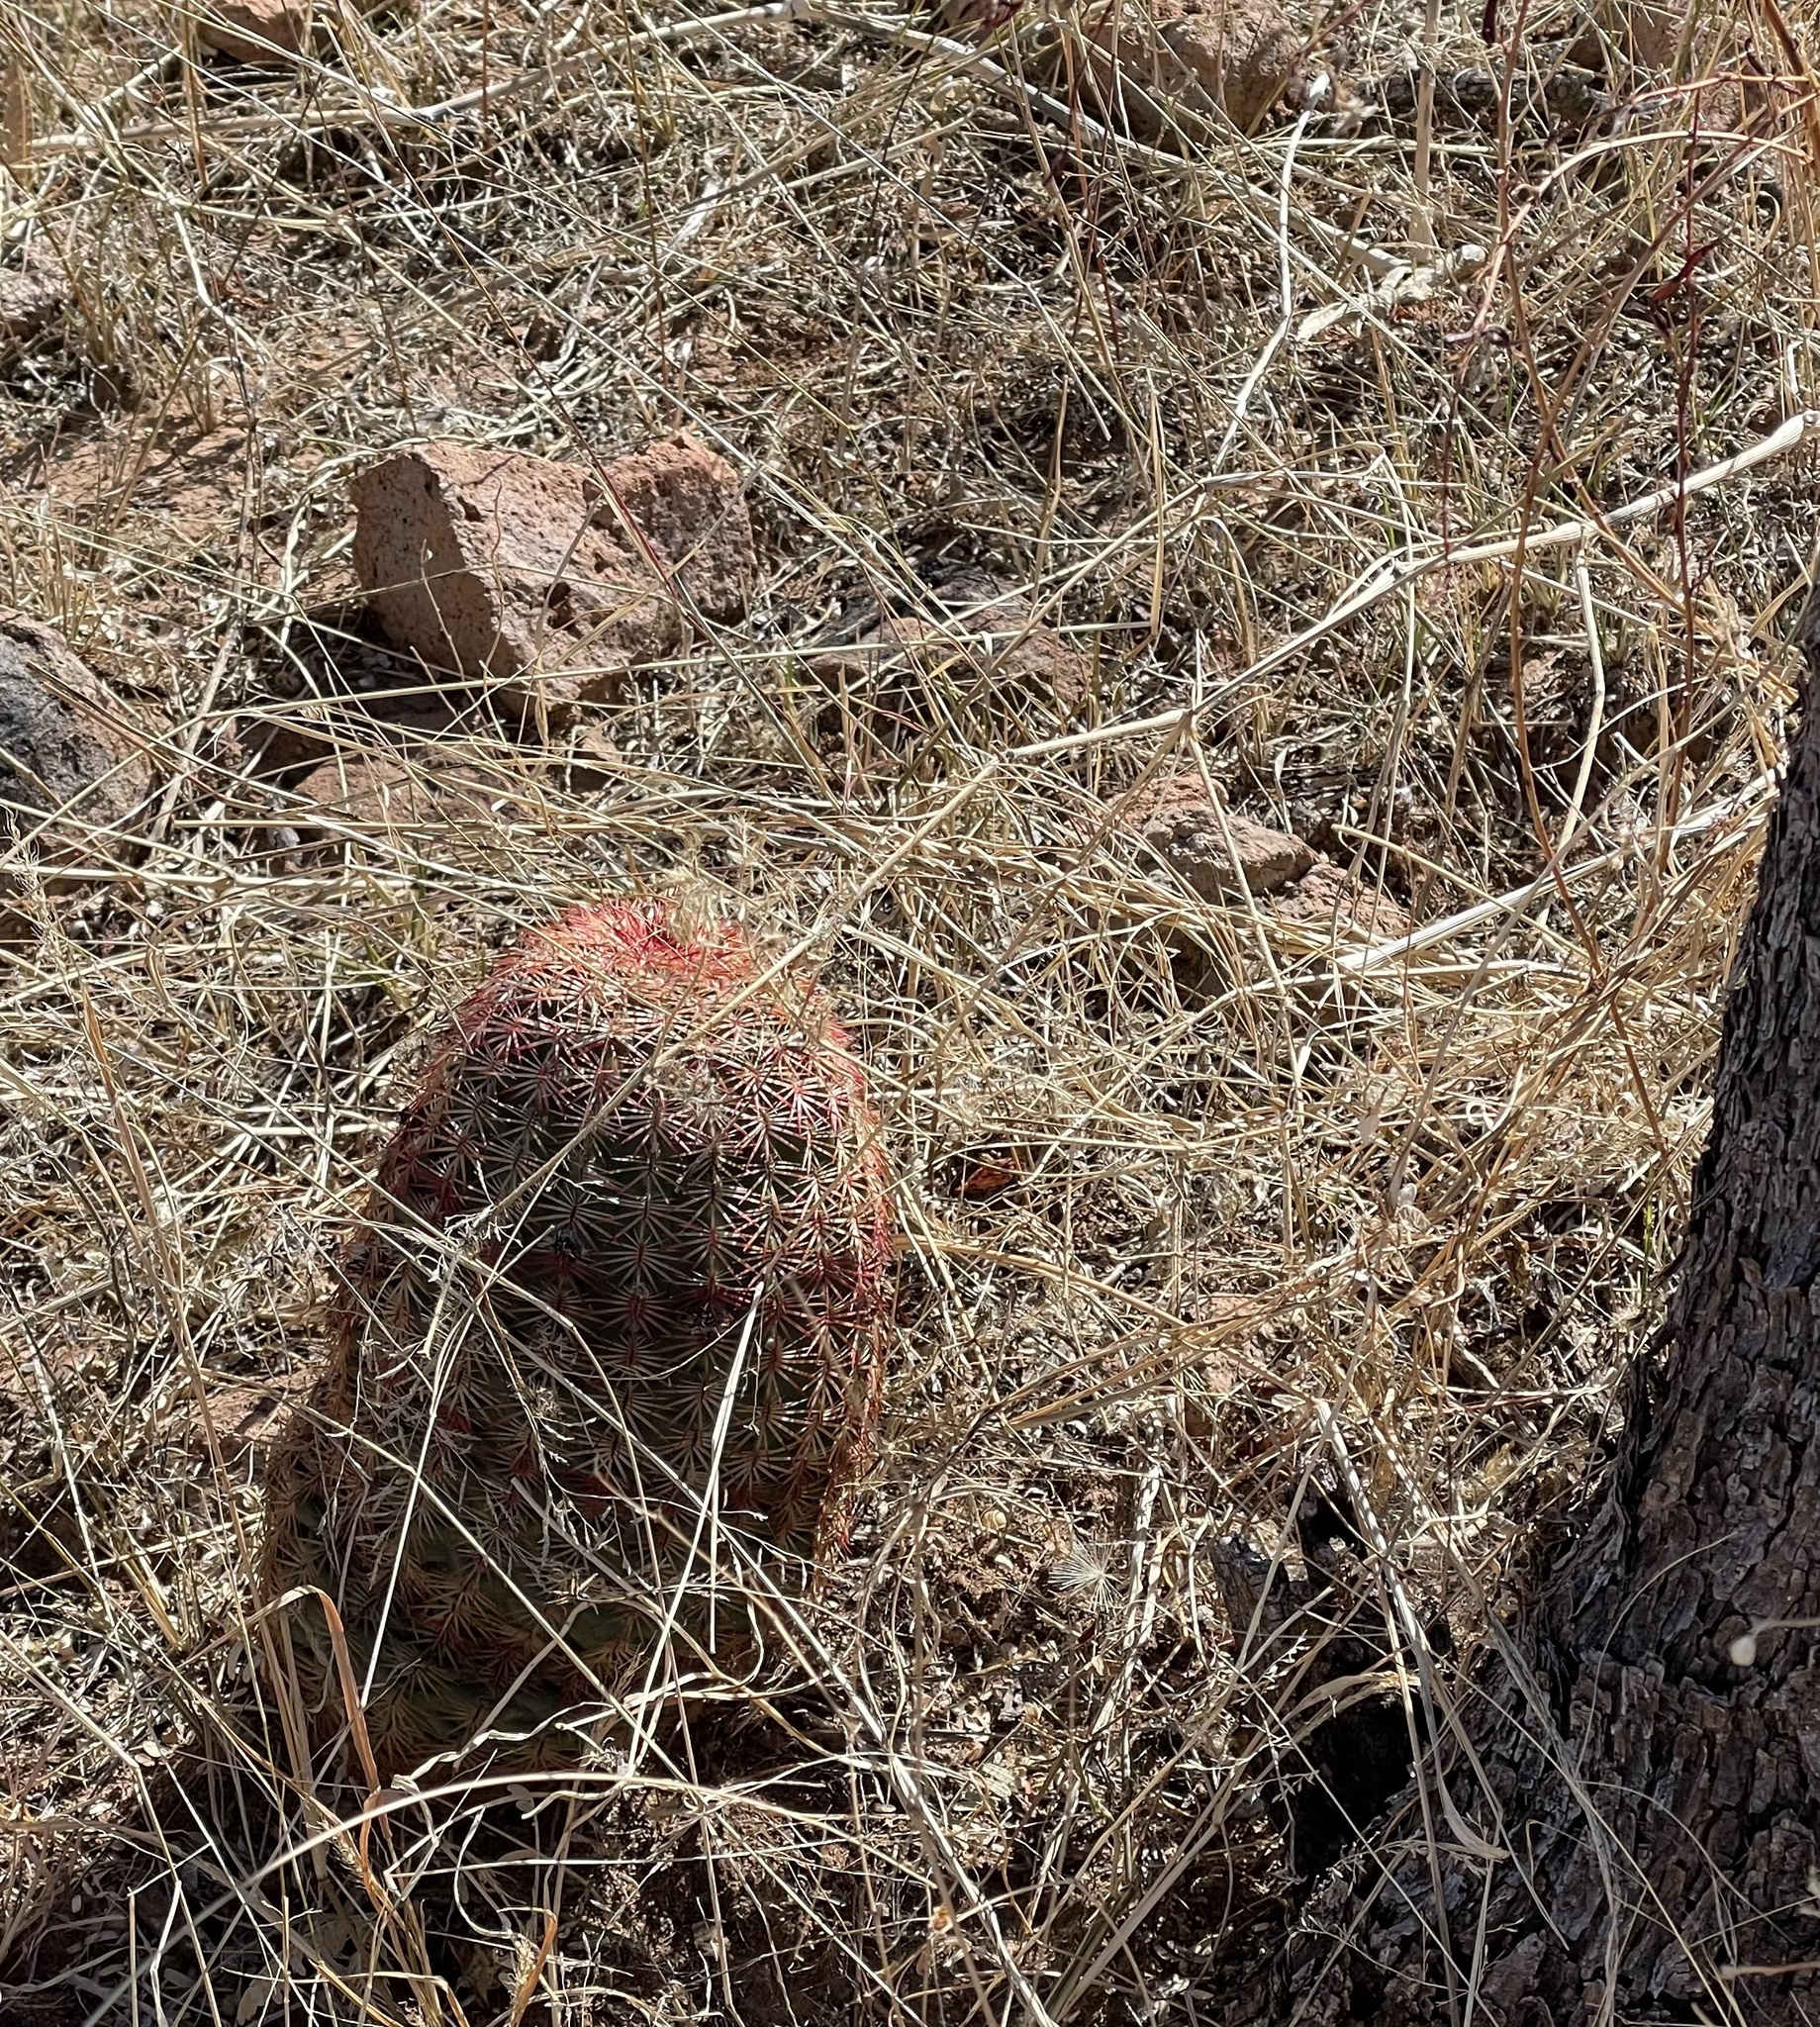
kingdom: Plantae
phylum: Tracheophyta
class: Magnoliopsida
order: Caryophyllales
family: Cactaceae
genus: Echinocereus
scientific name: Echinocereus rigidissimus
